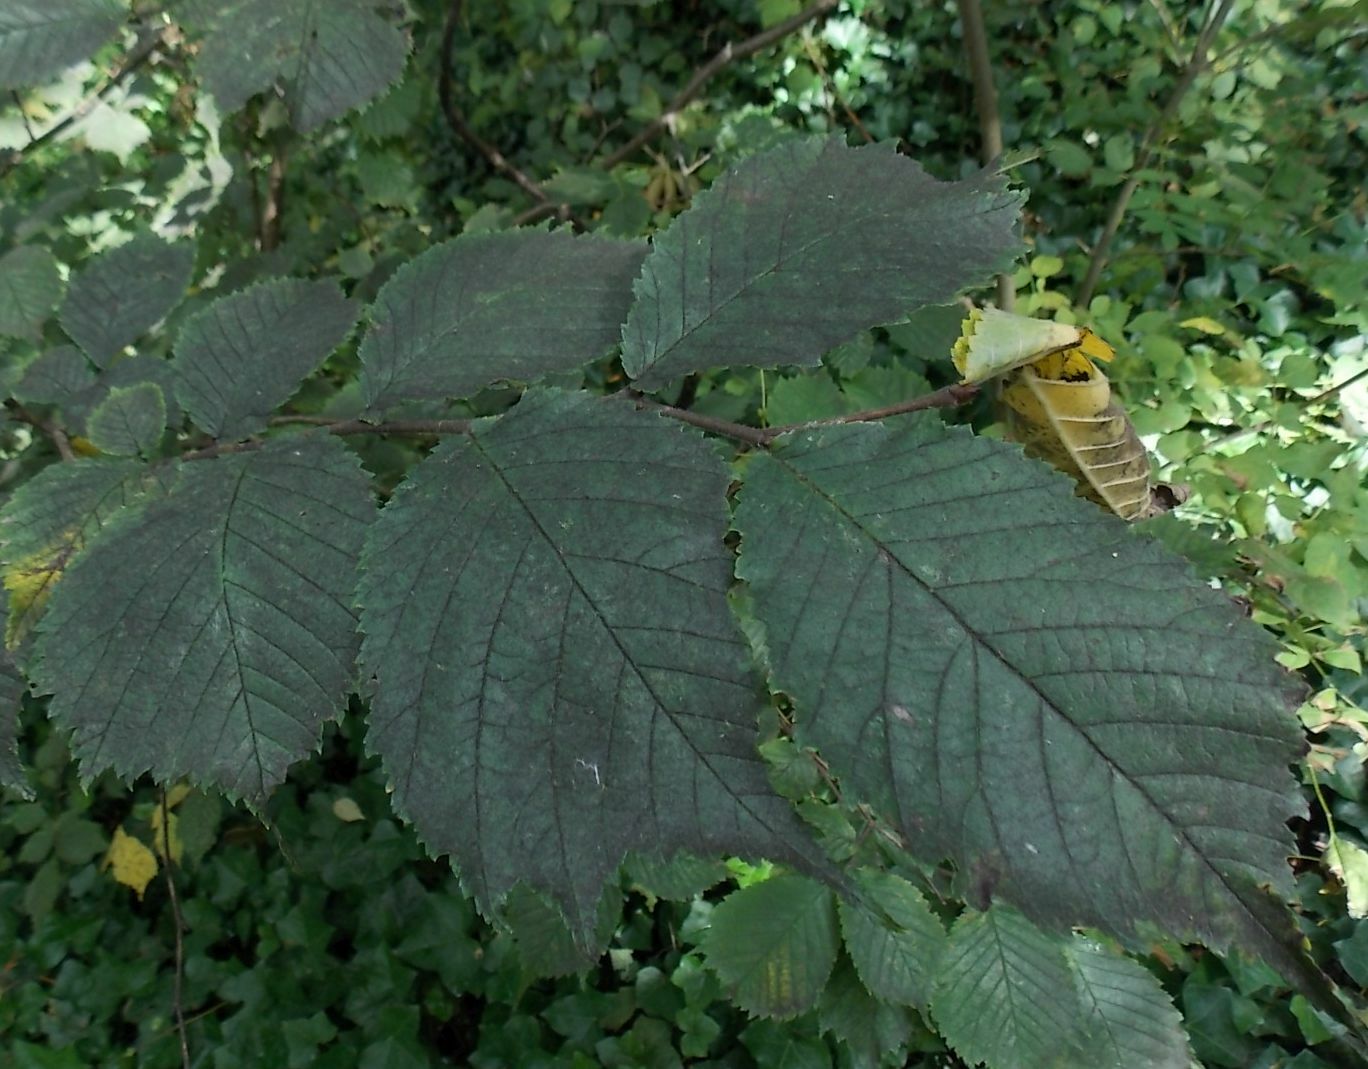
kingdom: Plantae
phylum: Tracheophyta
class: Magnoliopsida
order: Rosales
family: Ulmaceae
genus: Ulmus
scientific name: Ulmus glabra
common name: Wych elm
